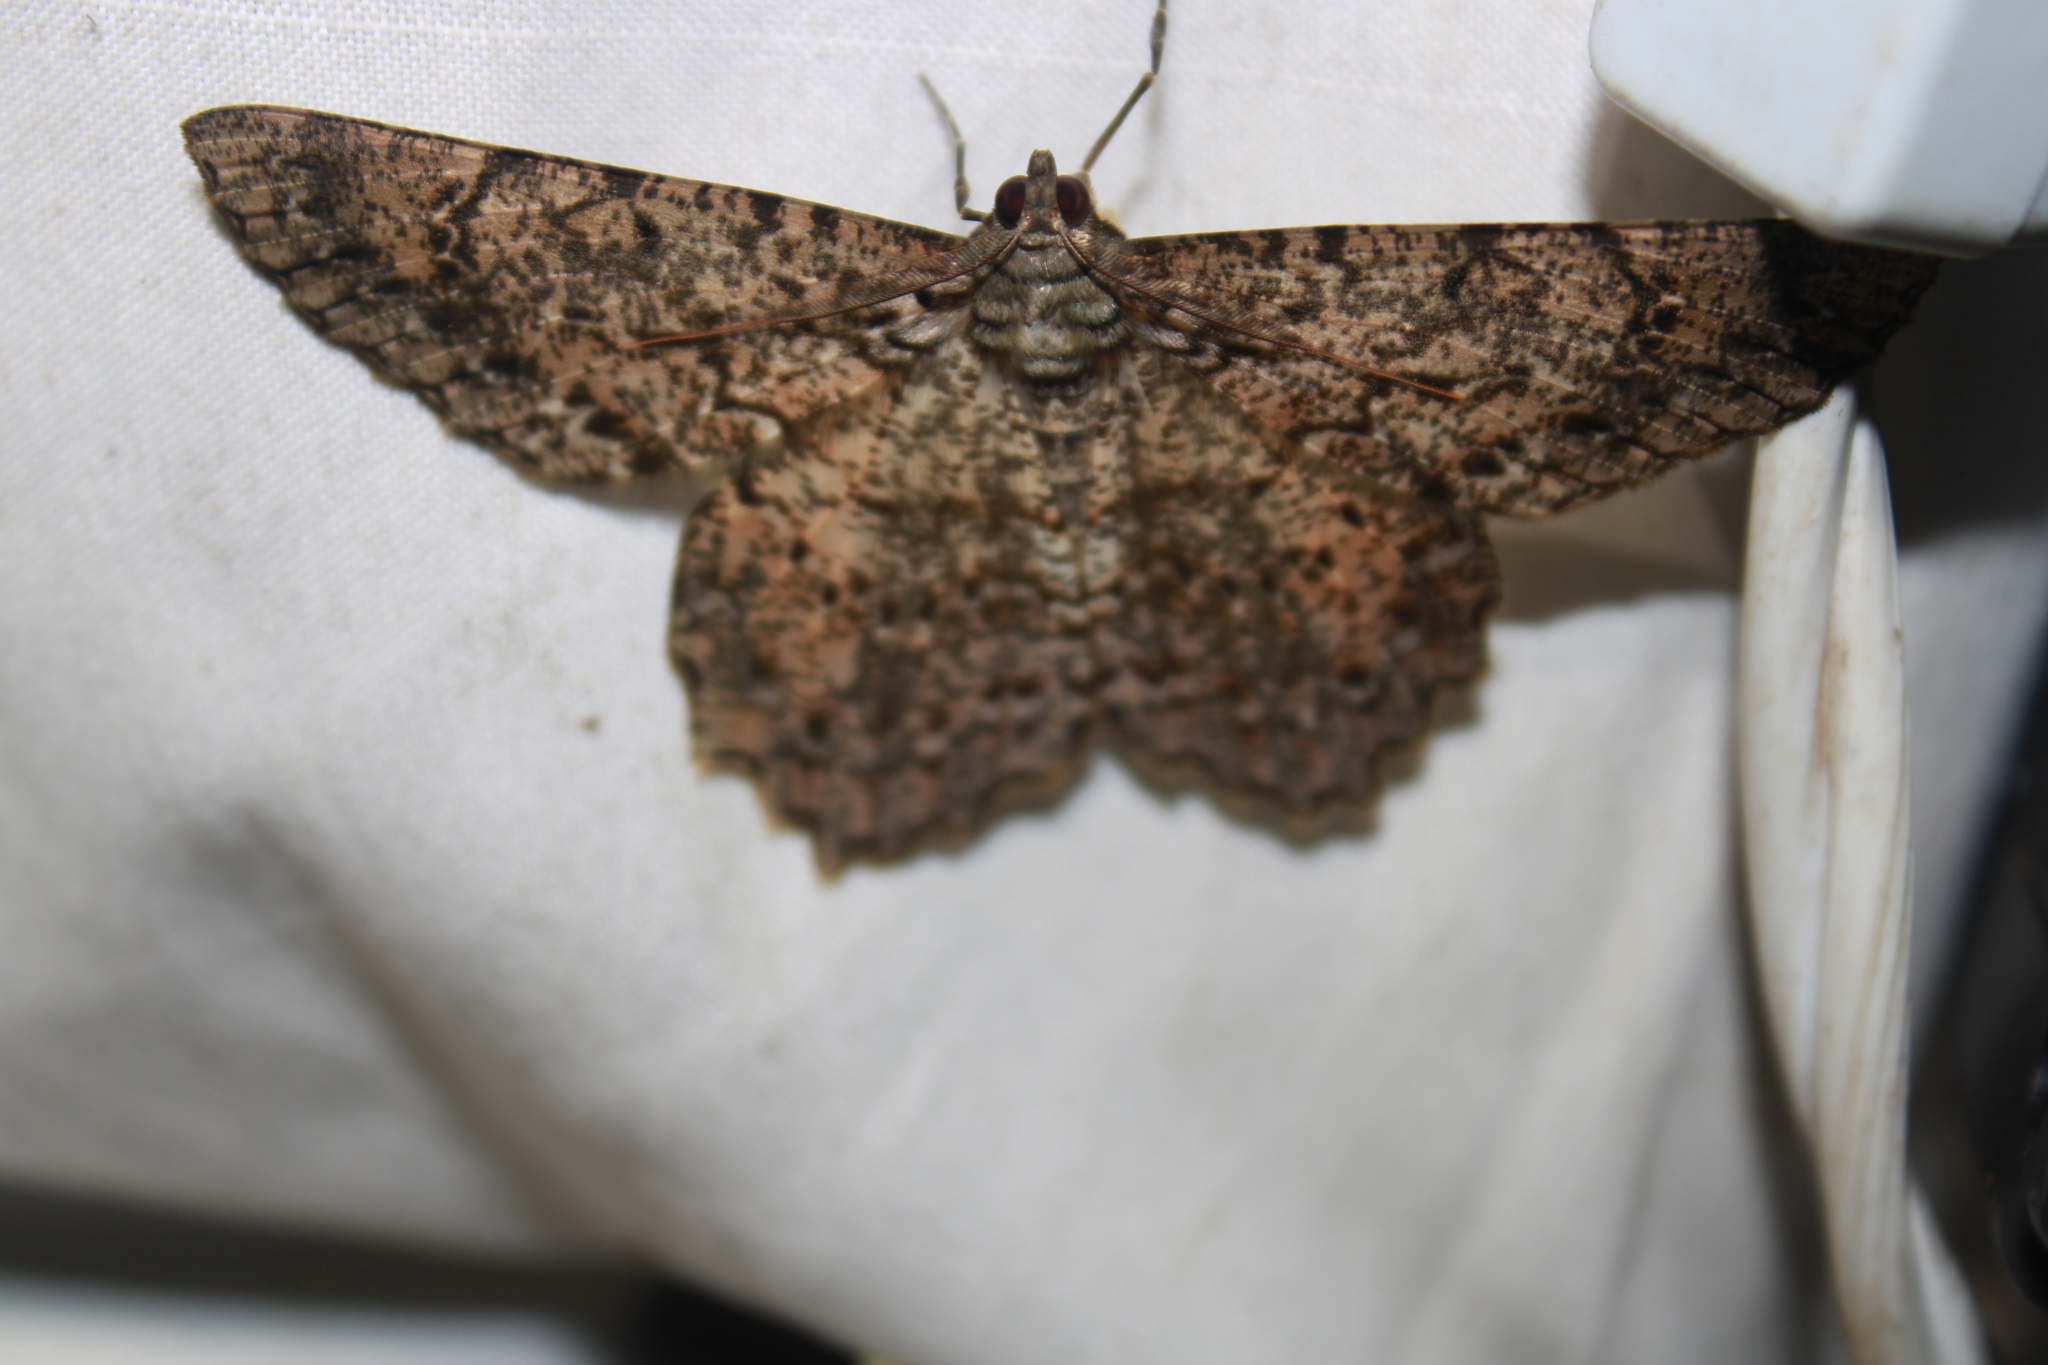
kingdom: Animalia
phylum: Arthropoda
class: Insecta
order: Lepidoptera
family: Geometridae
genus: Epimecis
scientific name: Epimecis matronaria
